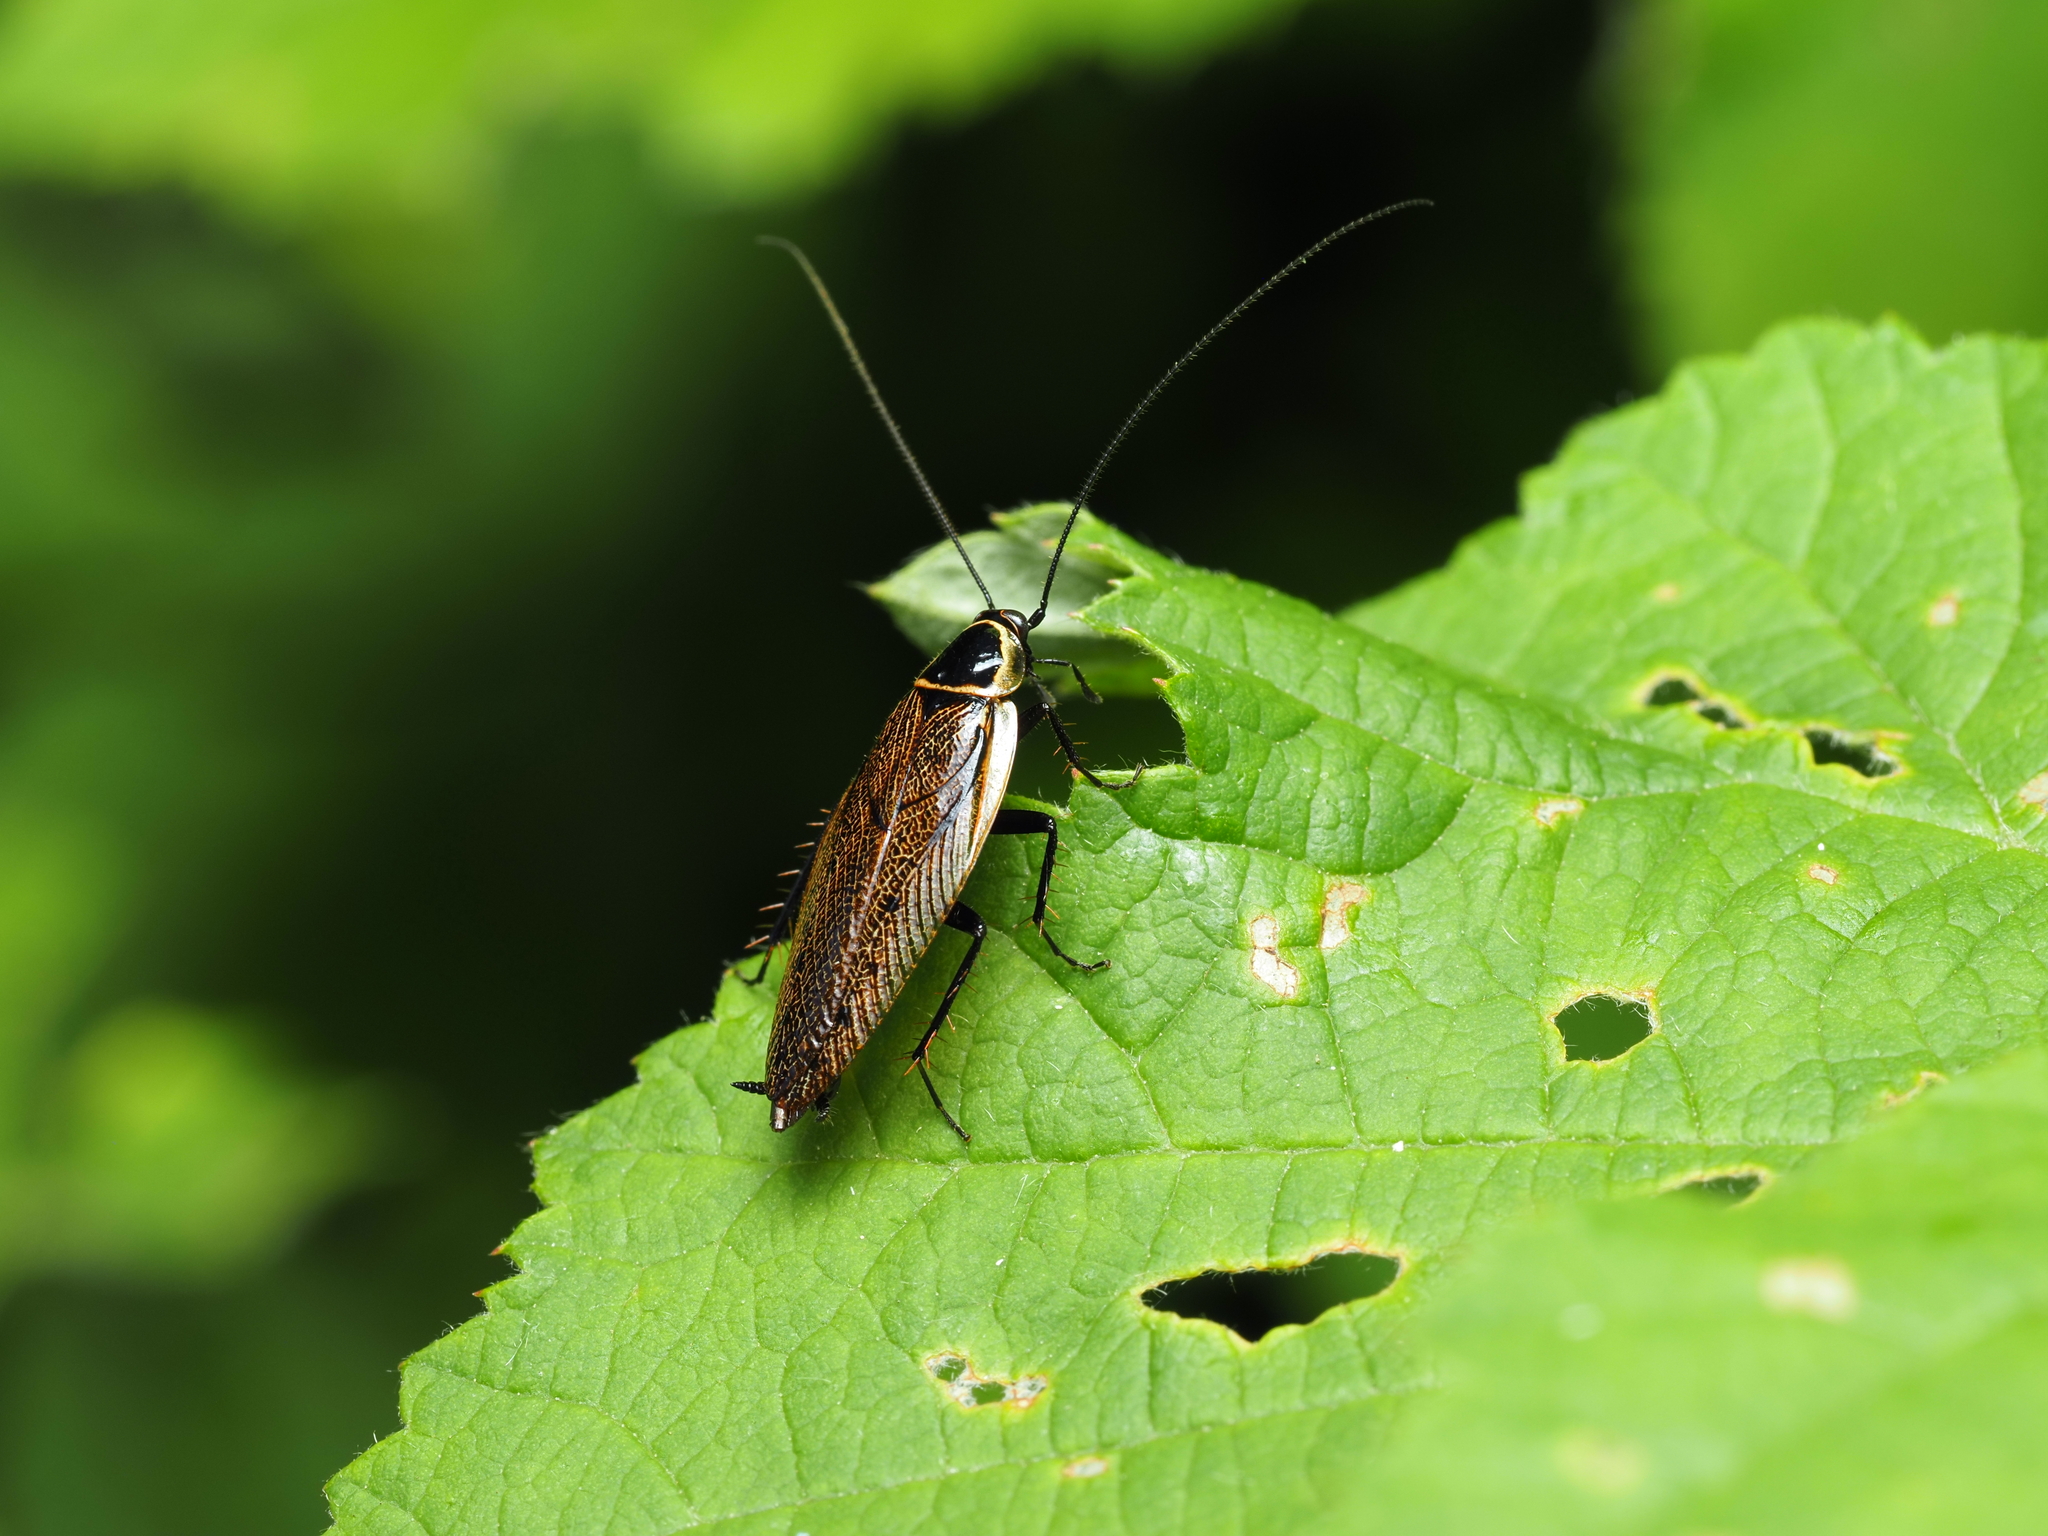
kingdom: Animalia
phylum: Arthropoda
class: Insecta
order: Blattodea
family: Ectobiidae
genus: Ectobius
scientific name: Ectobius sylvestris
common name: Forest cockroach
